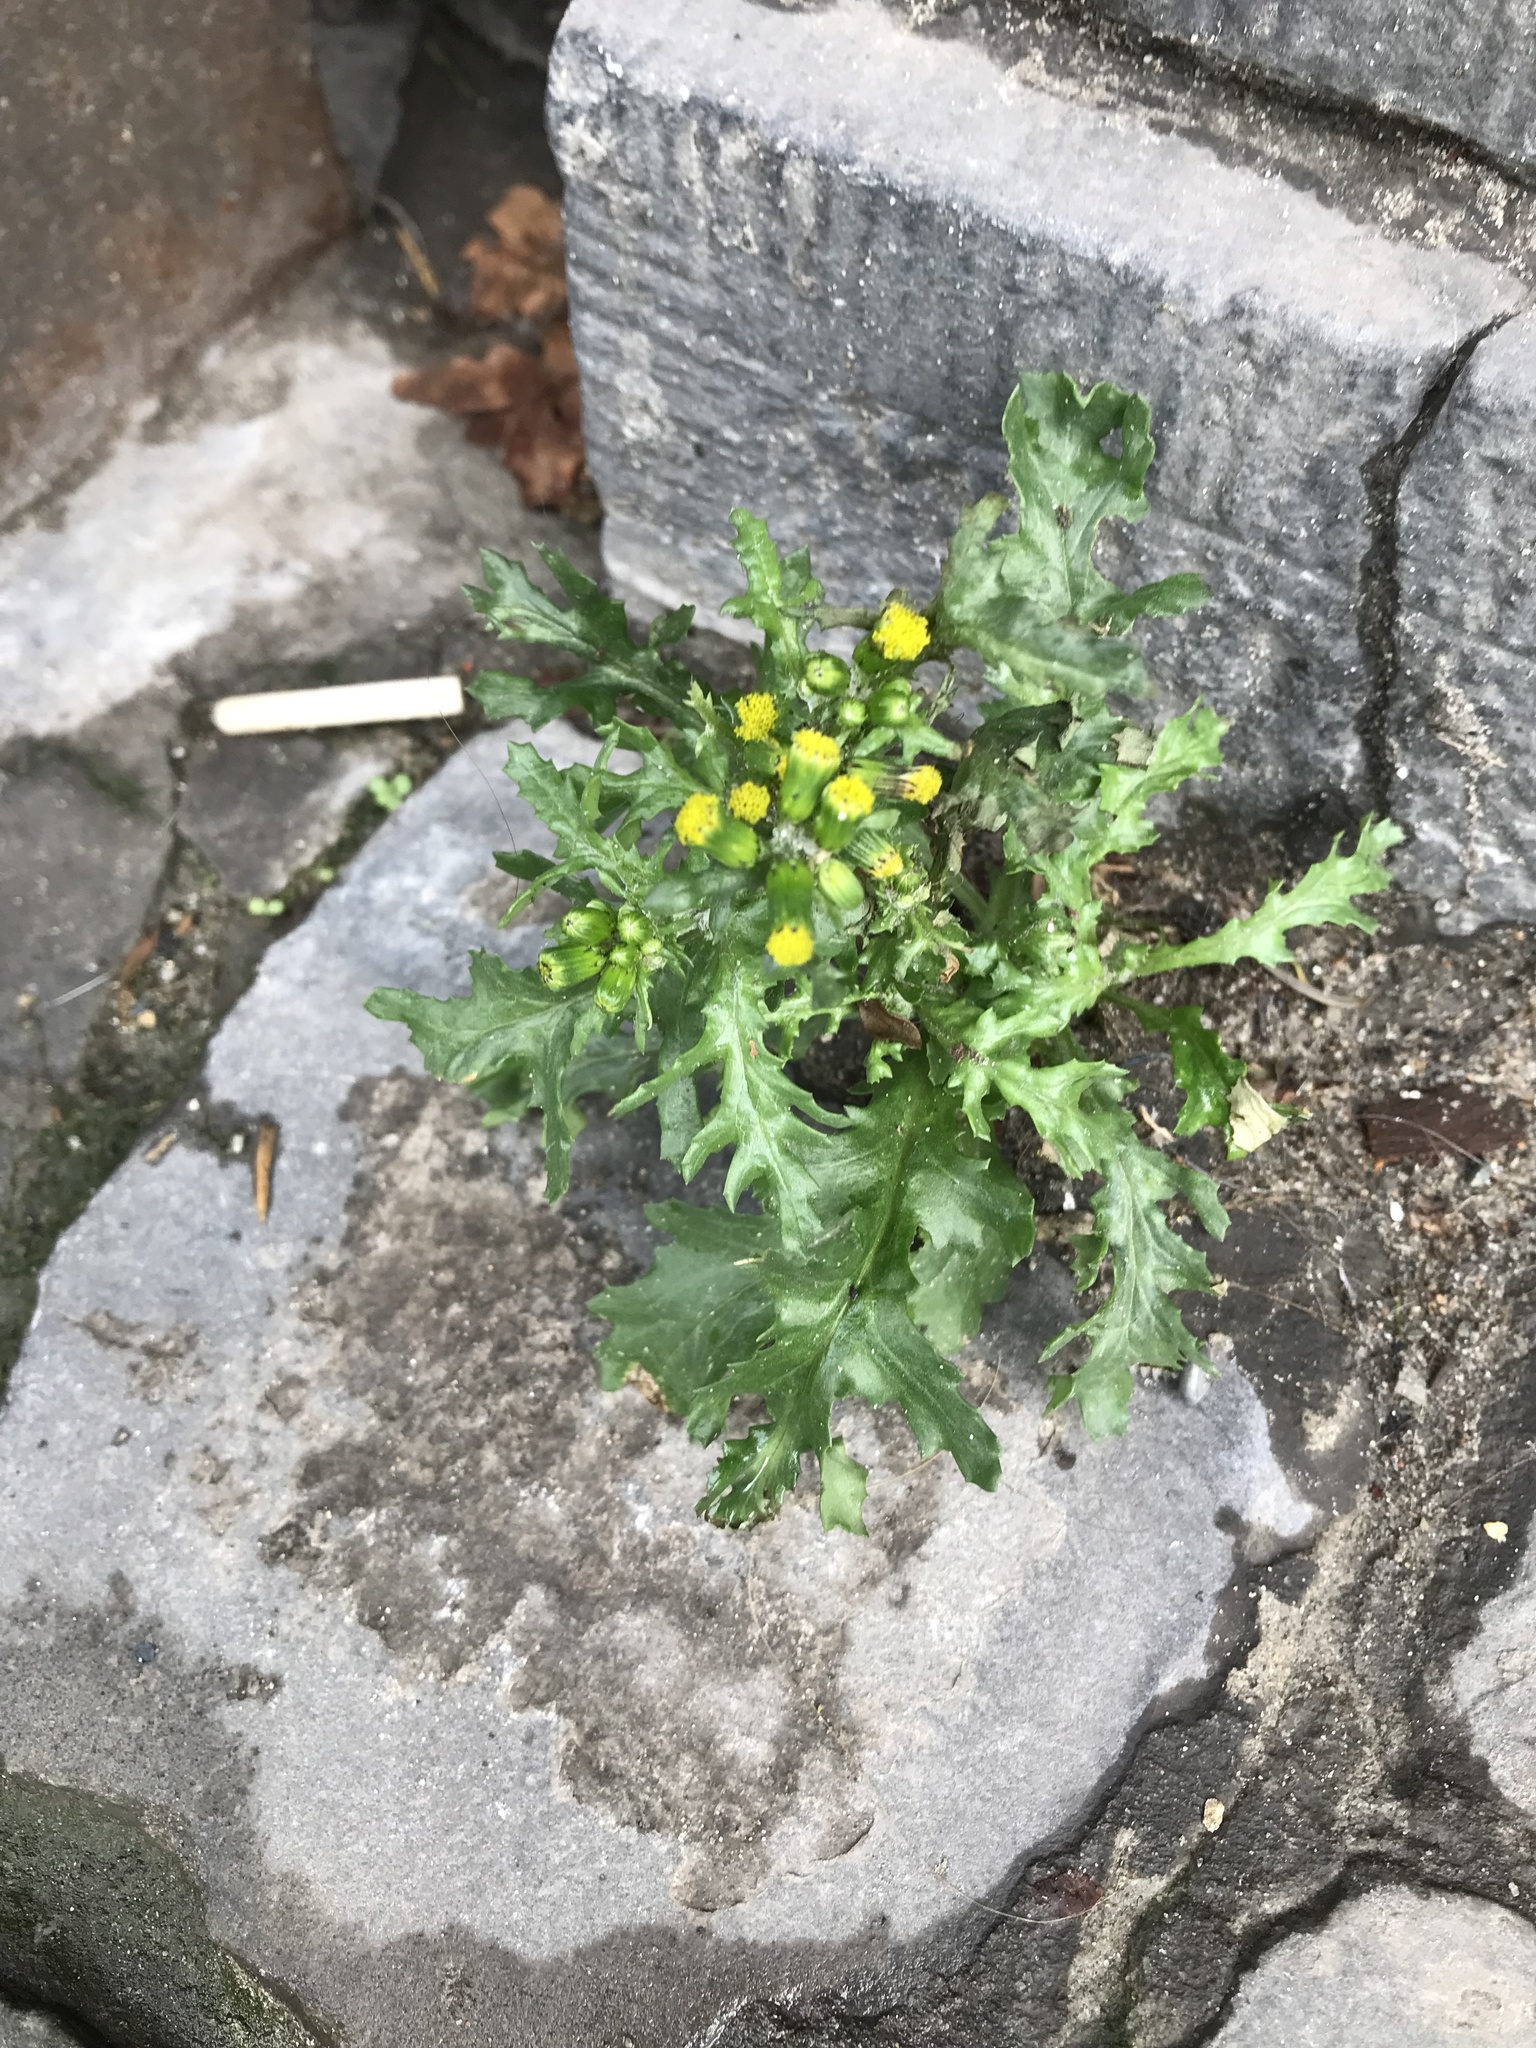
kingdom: Plantae
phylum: Tracheophyta
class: Magnoliopsida
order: Asterales
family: Asteraceae
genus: Senecio
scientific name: Senecio vulgaris
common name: Old-man-in-the-spring
